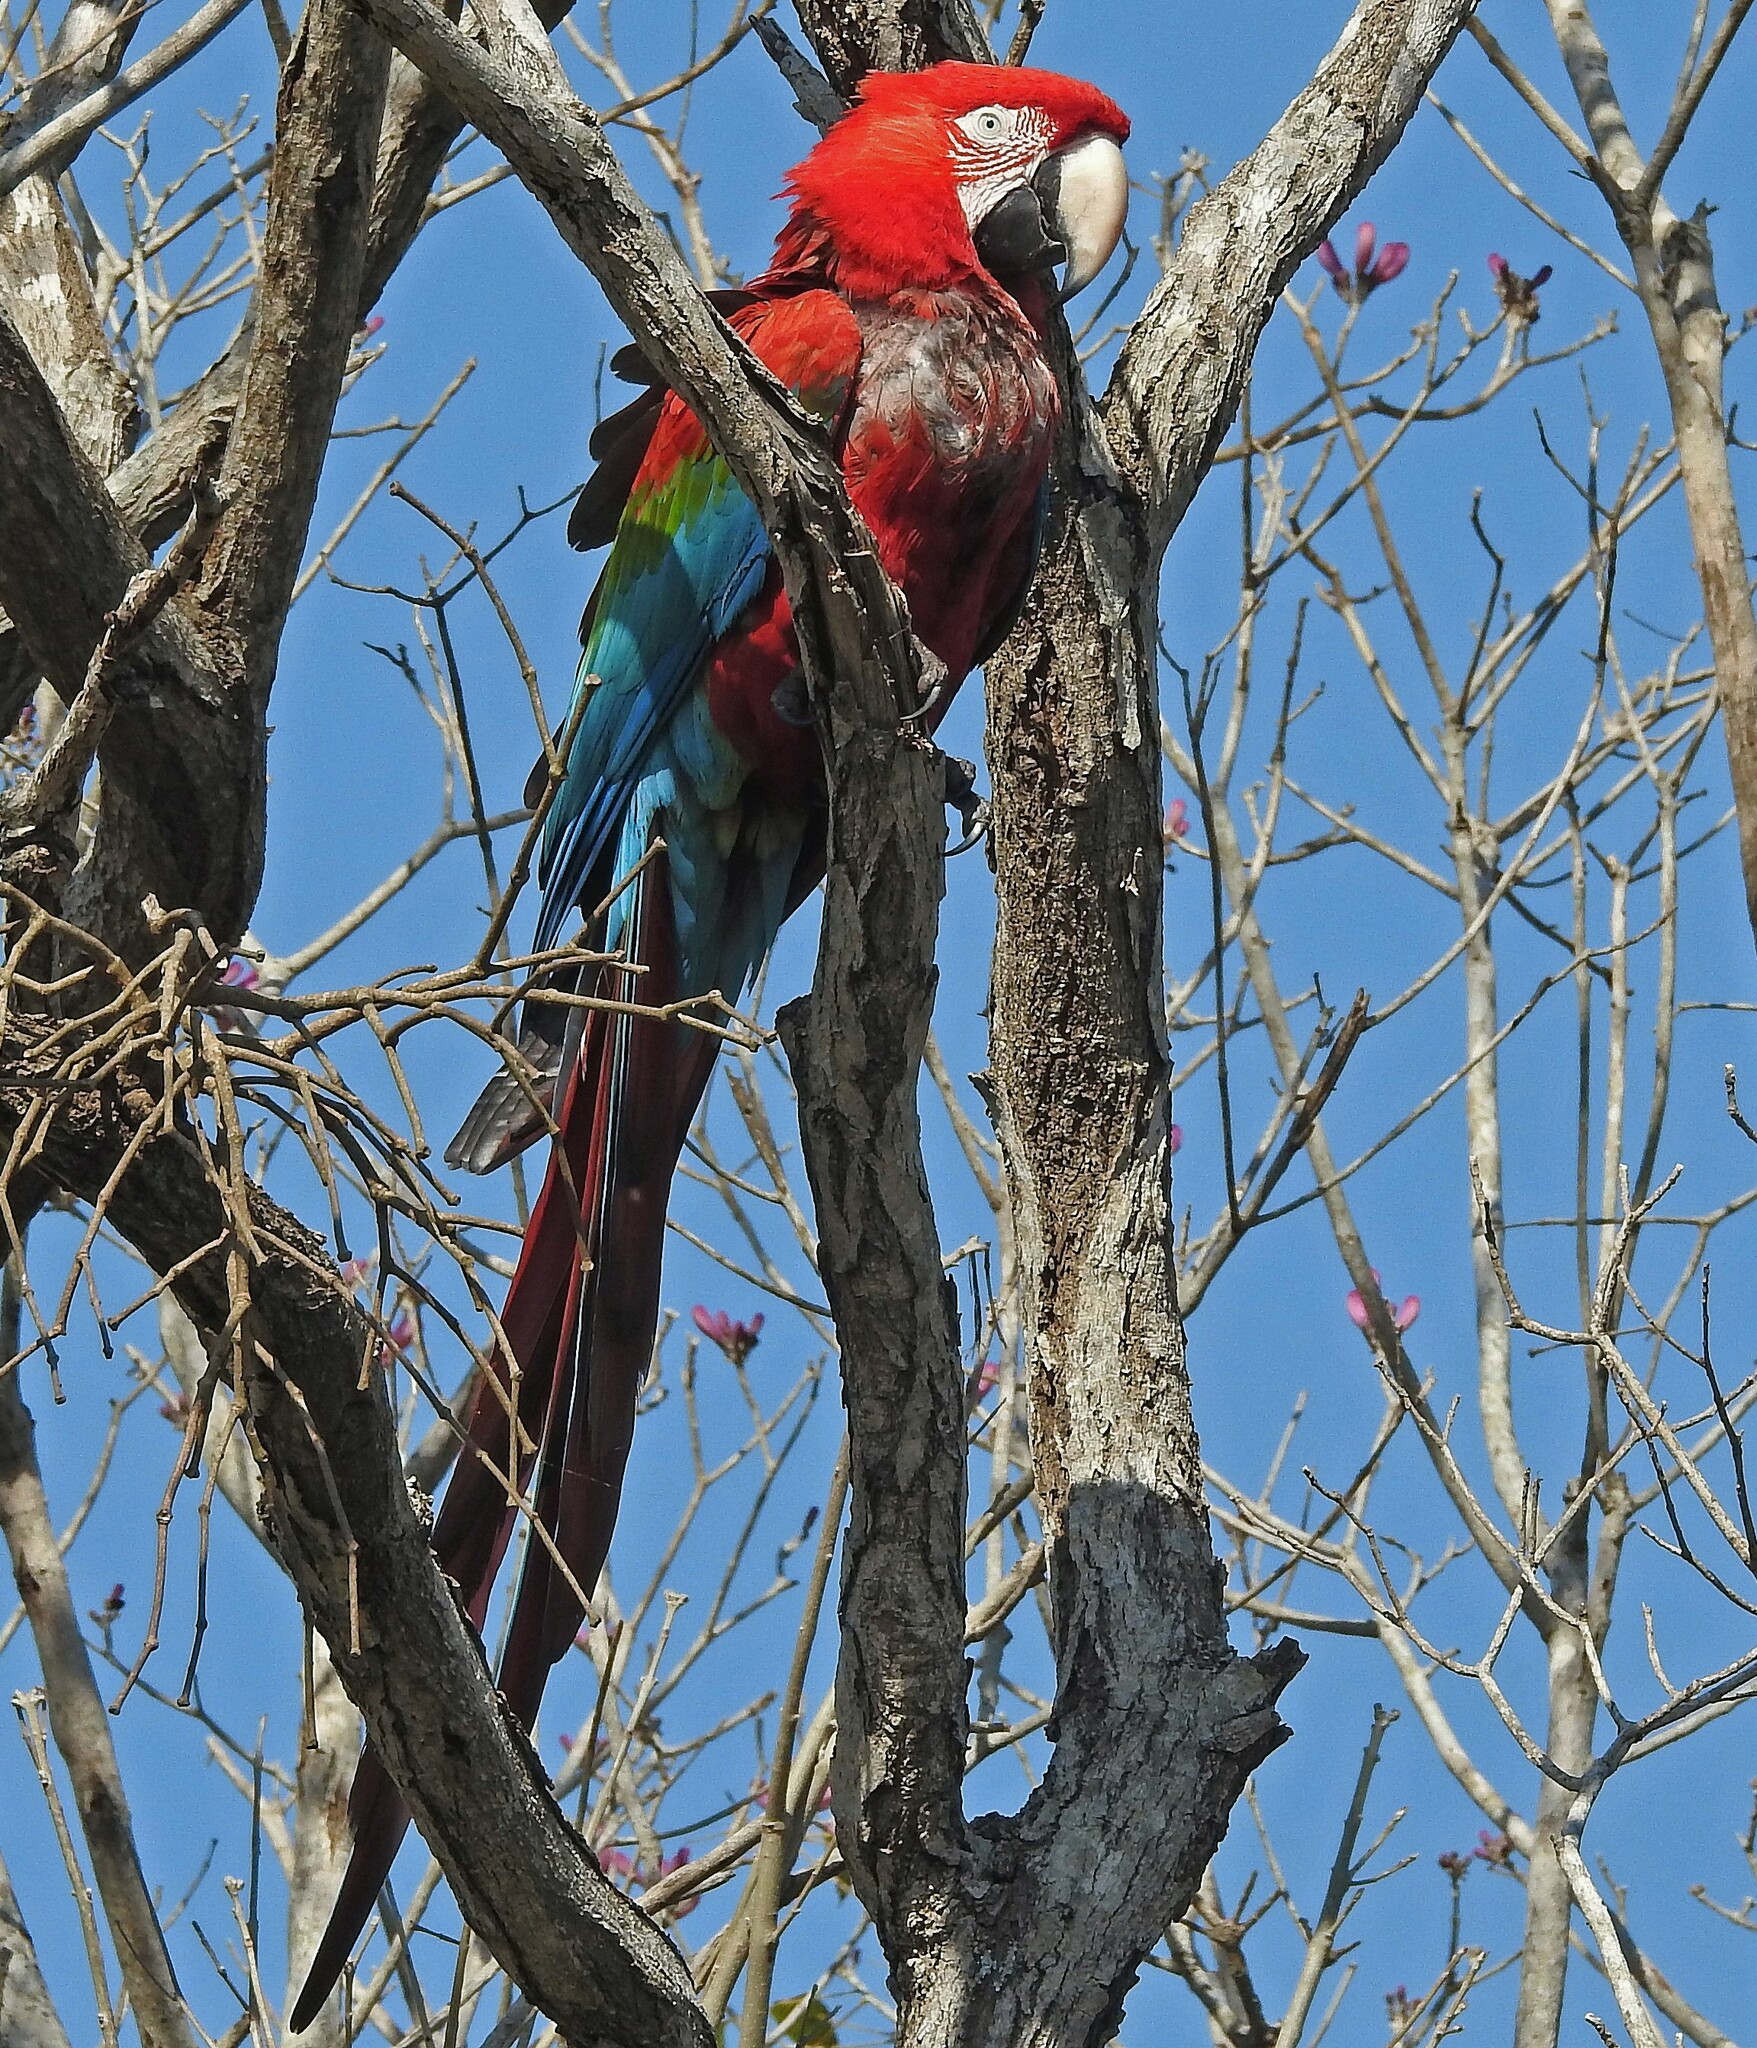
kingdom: Animalia
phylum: Chordata
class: Aves
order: Psittaciformes
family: Psittacidae
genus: Ara
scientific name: Ara chloropterus
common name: Red-and-green macaw
